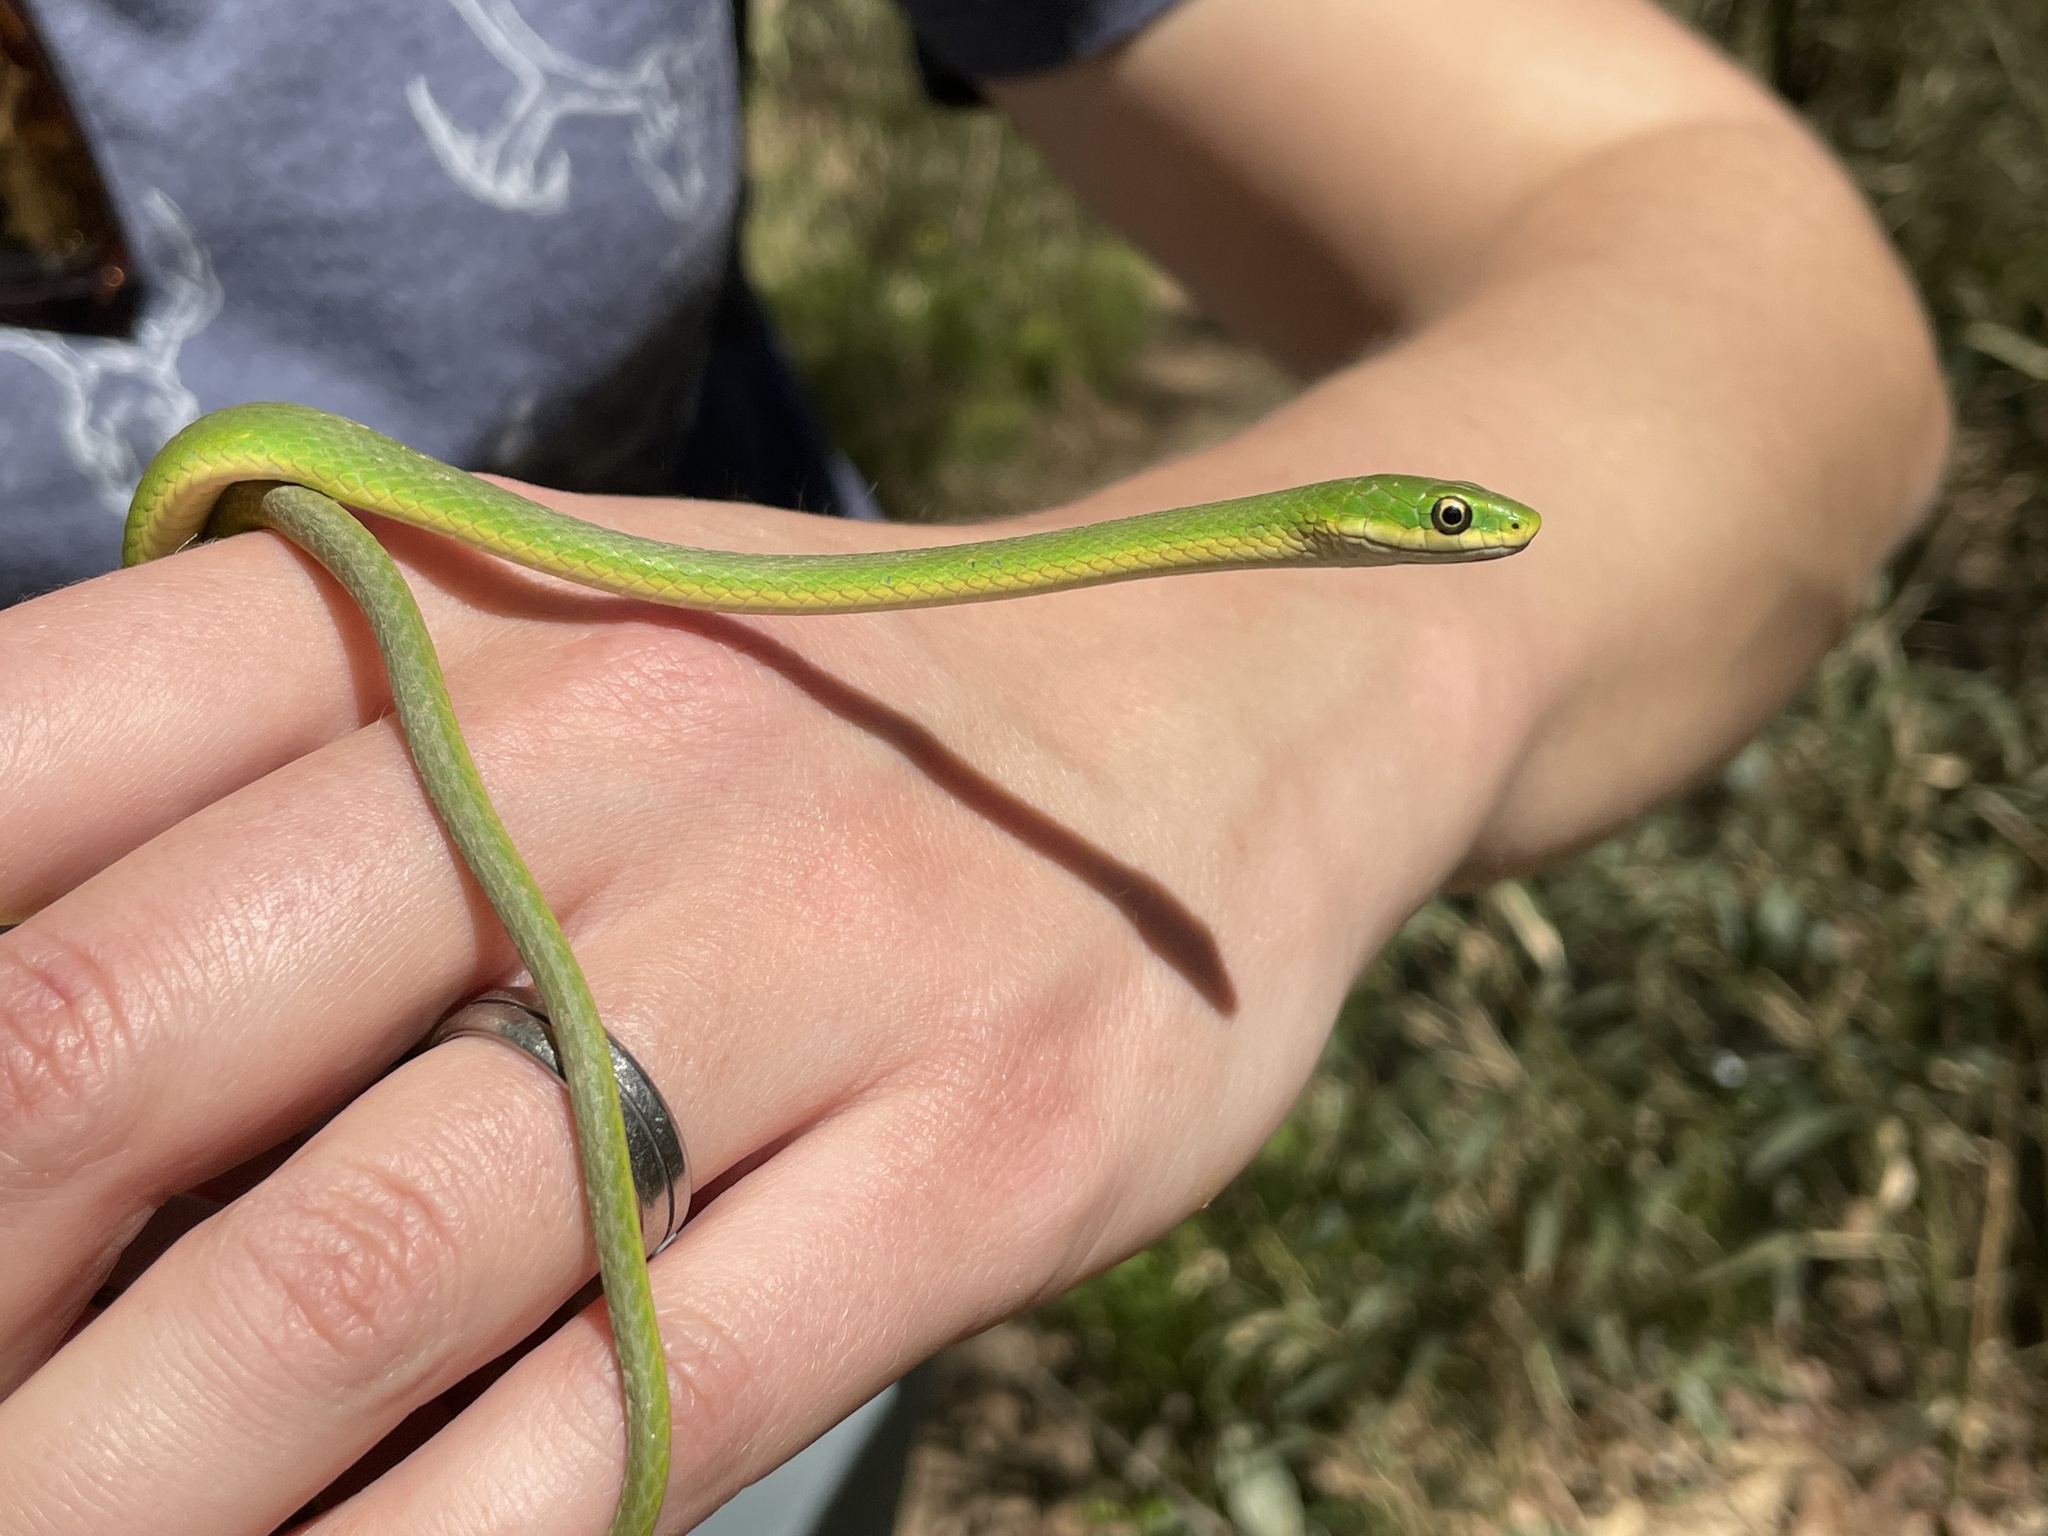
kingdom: Animalia
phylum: Chordata
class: Squamata
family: Colubridae
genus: Opheodrys
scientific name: Opheodrys aestivus
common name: Rough greensnake
